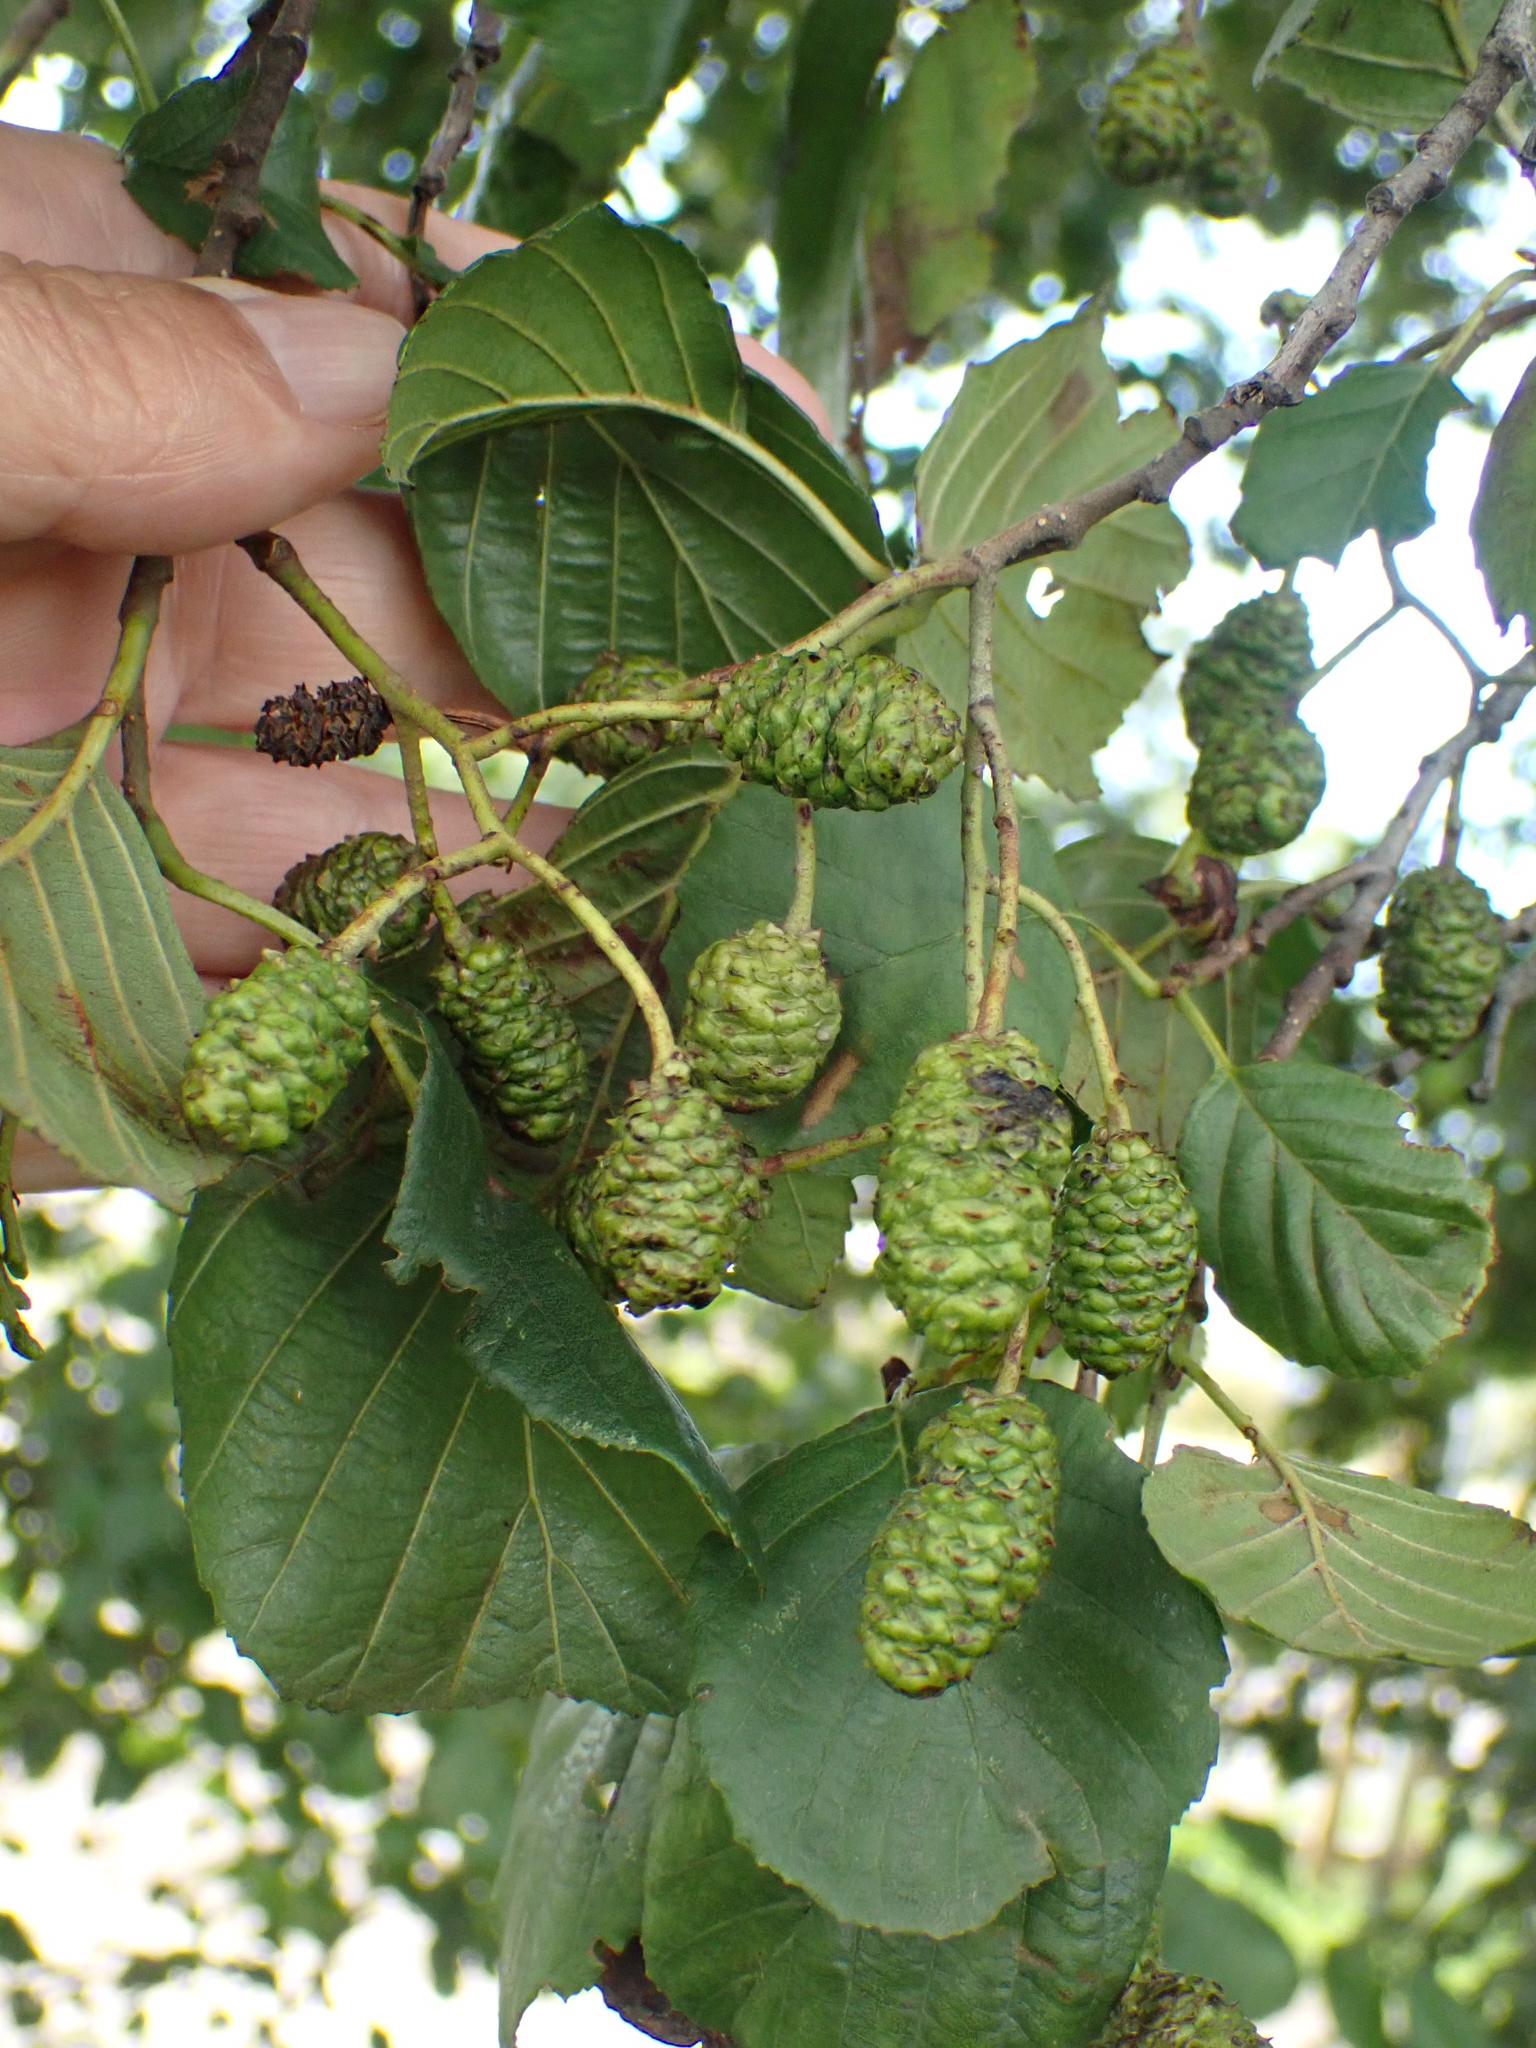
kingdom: Plantae
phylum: Tracheophyta
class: Magnoliopsida
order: Fagales
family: Betulaceae
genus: Alnus
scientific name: Alnus glutinosa
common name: Black alder
